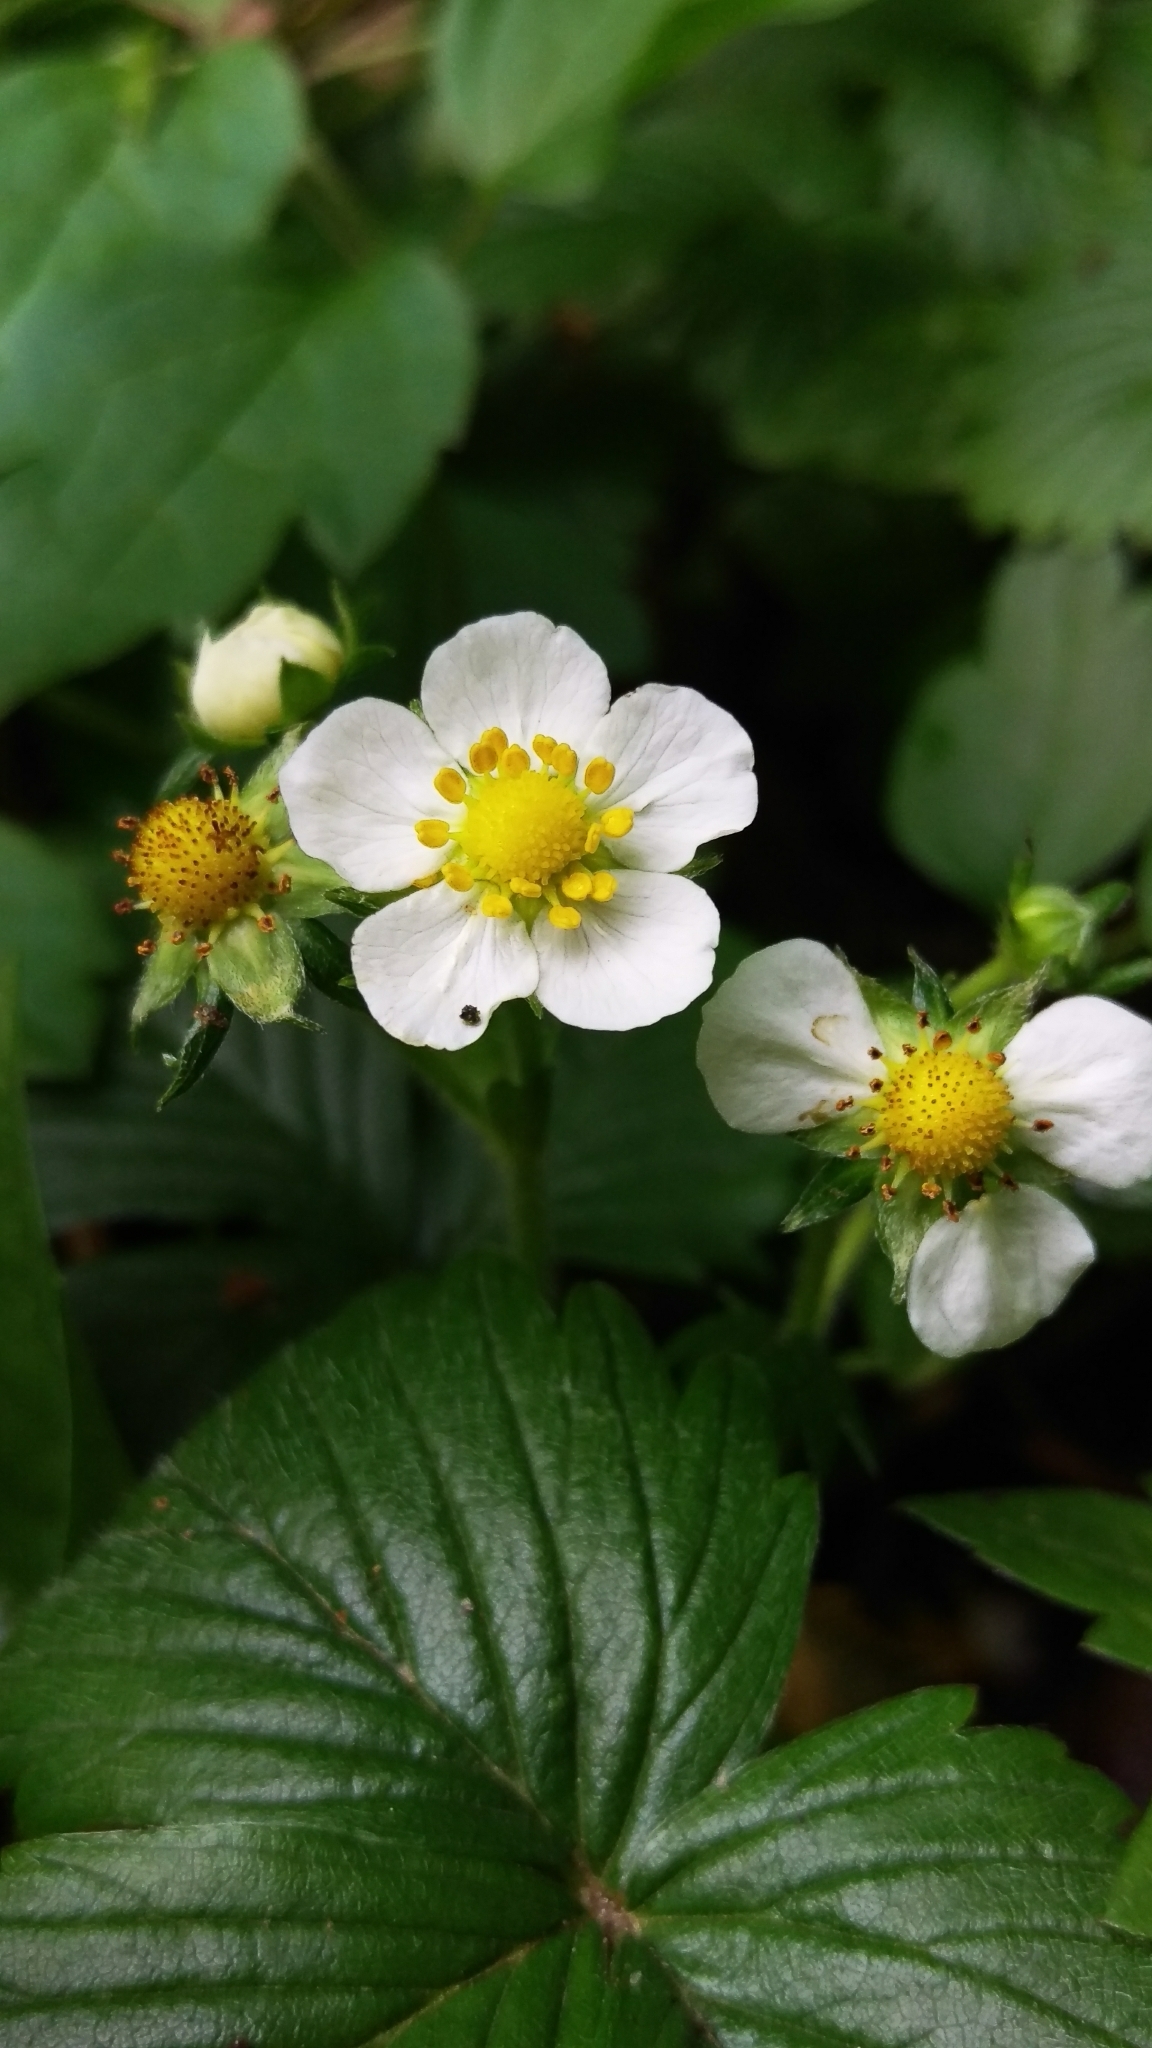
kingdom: Plantae
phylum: Tracheophyta
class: Magnoliopsida
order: Rosales
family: Rosaceae
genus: Fragaria
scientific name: Fragaria vesca
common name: Wild strawberry
